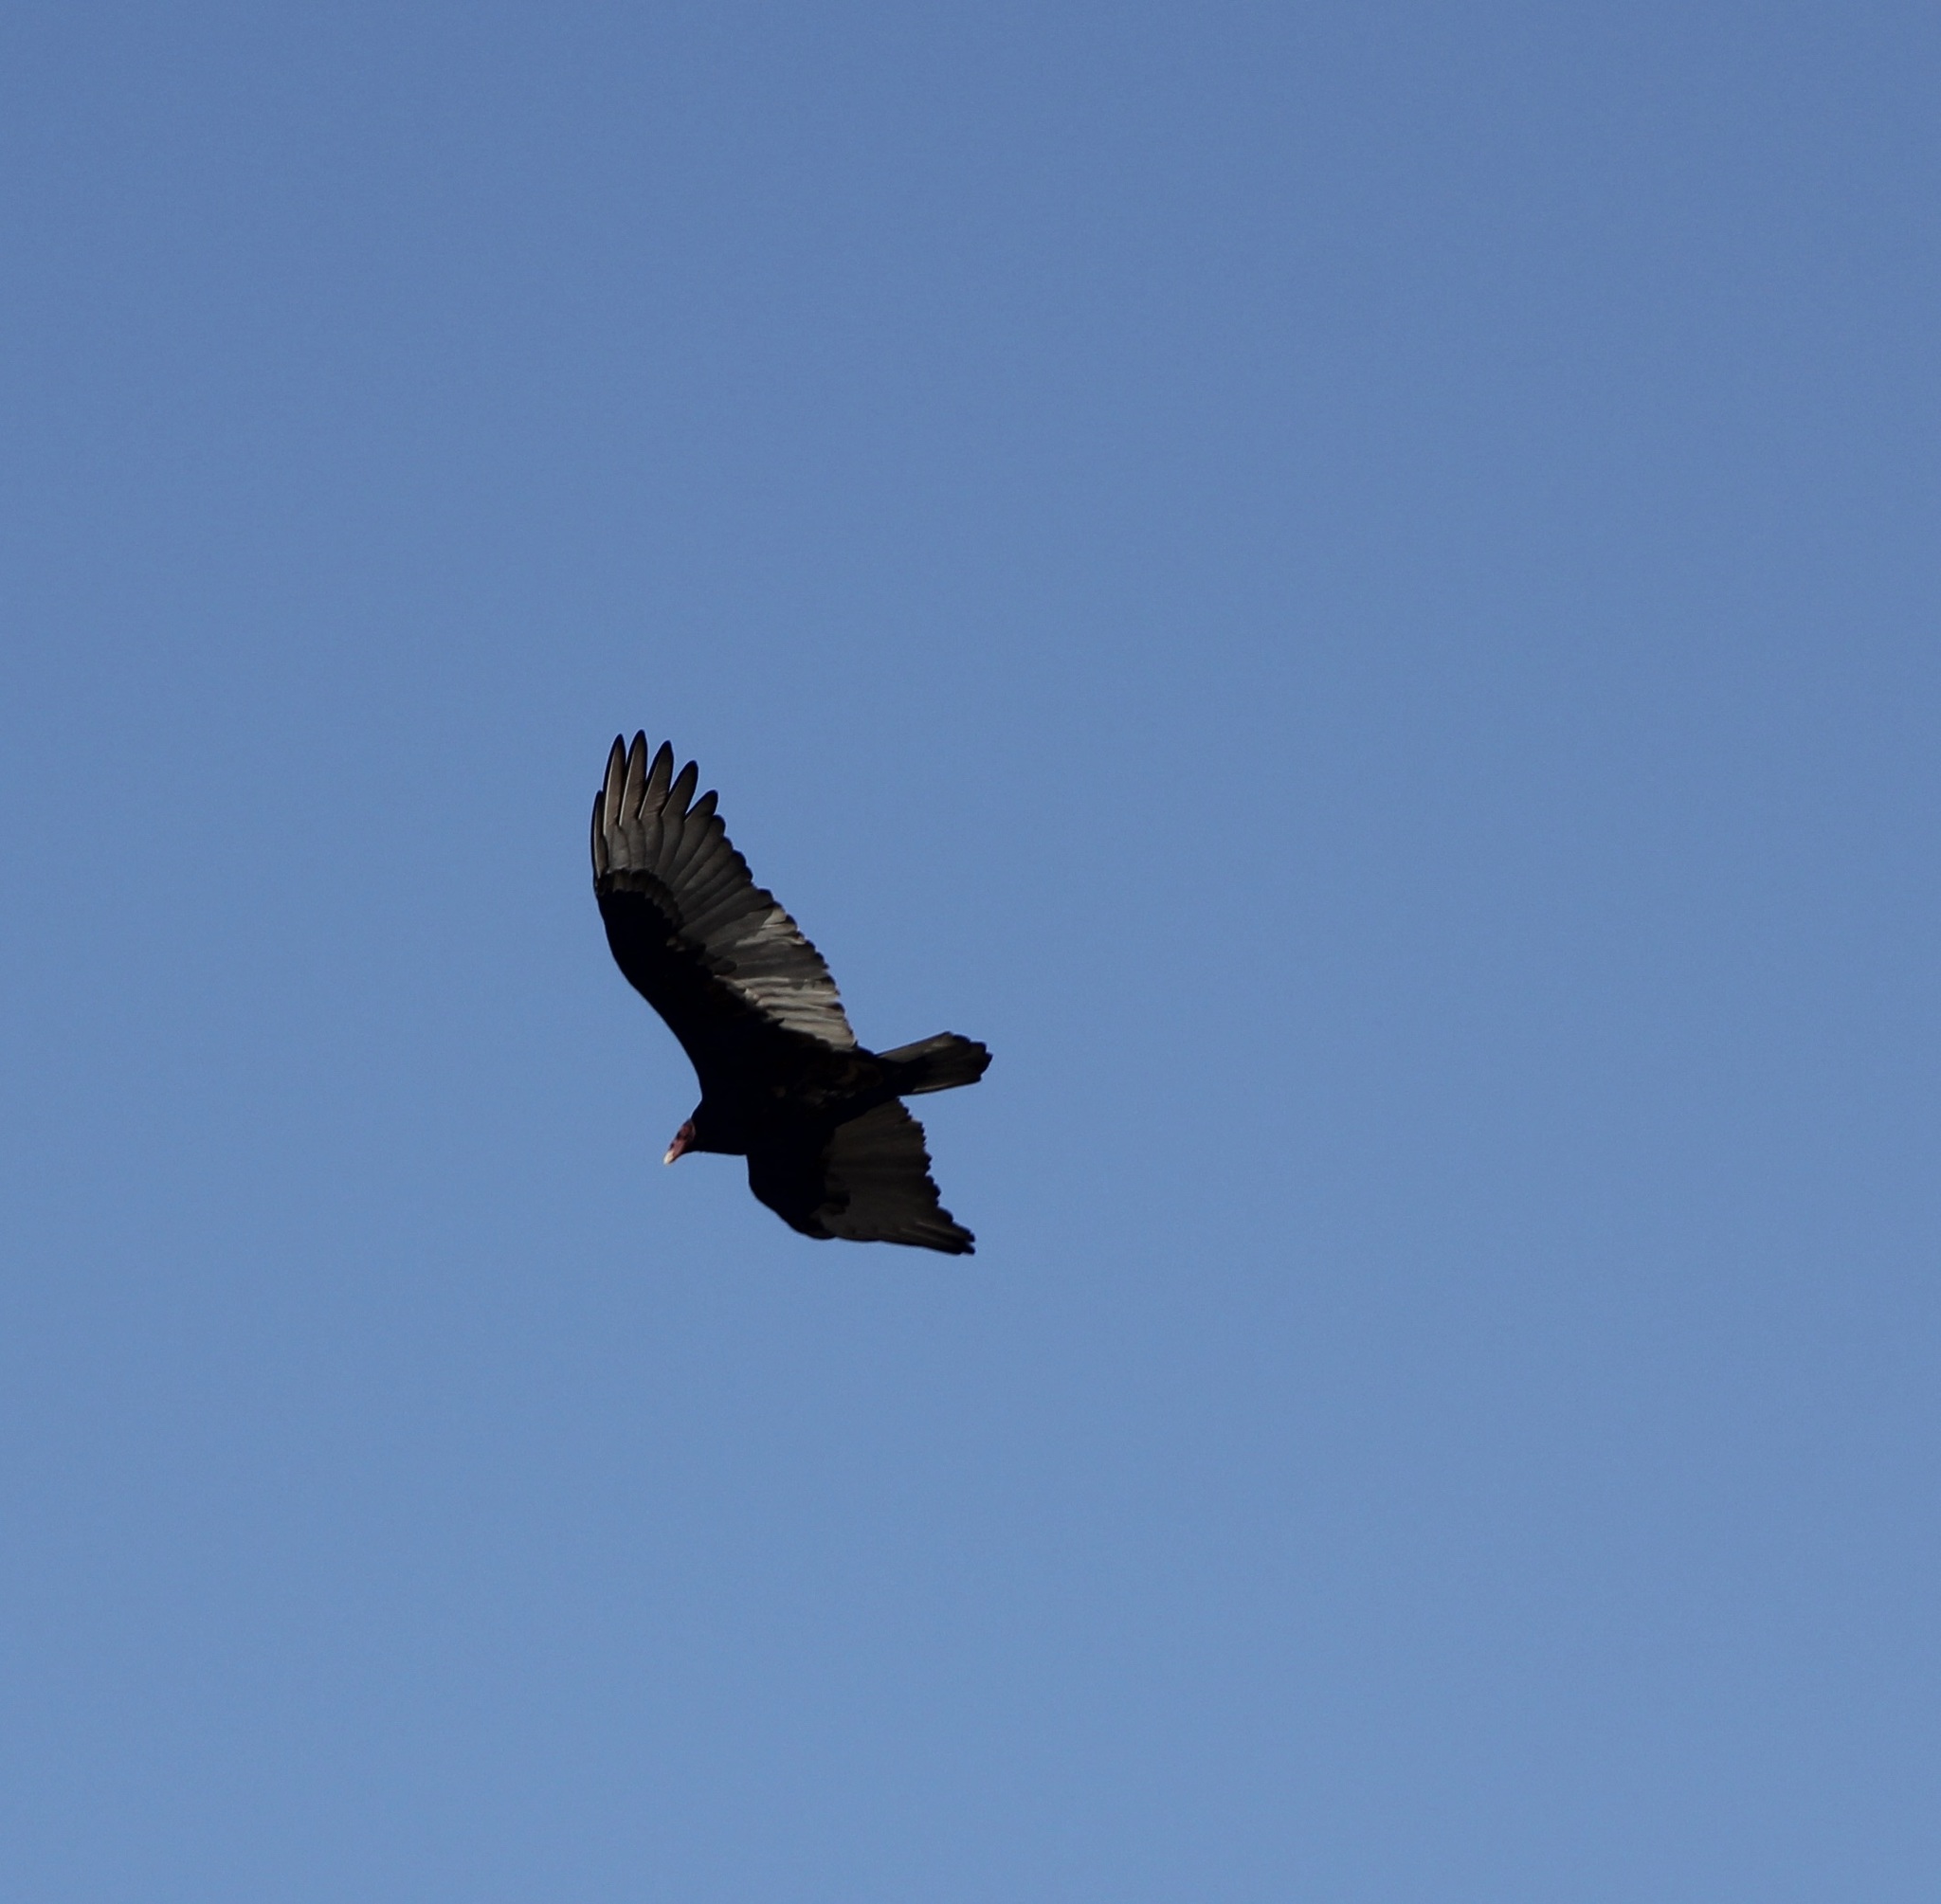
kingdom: Animalia
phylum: Chordata
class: Aves
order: Accipitriformes
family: Cathartidae
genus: Cathartes
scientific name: Cathartes aura
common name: Turkey vulture
